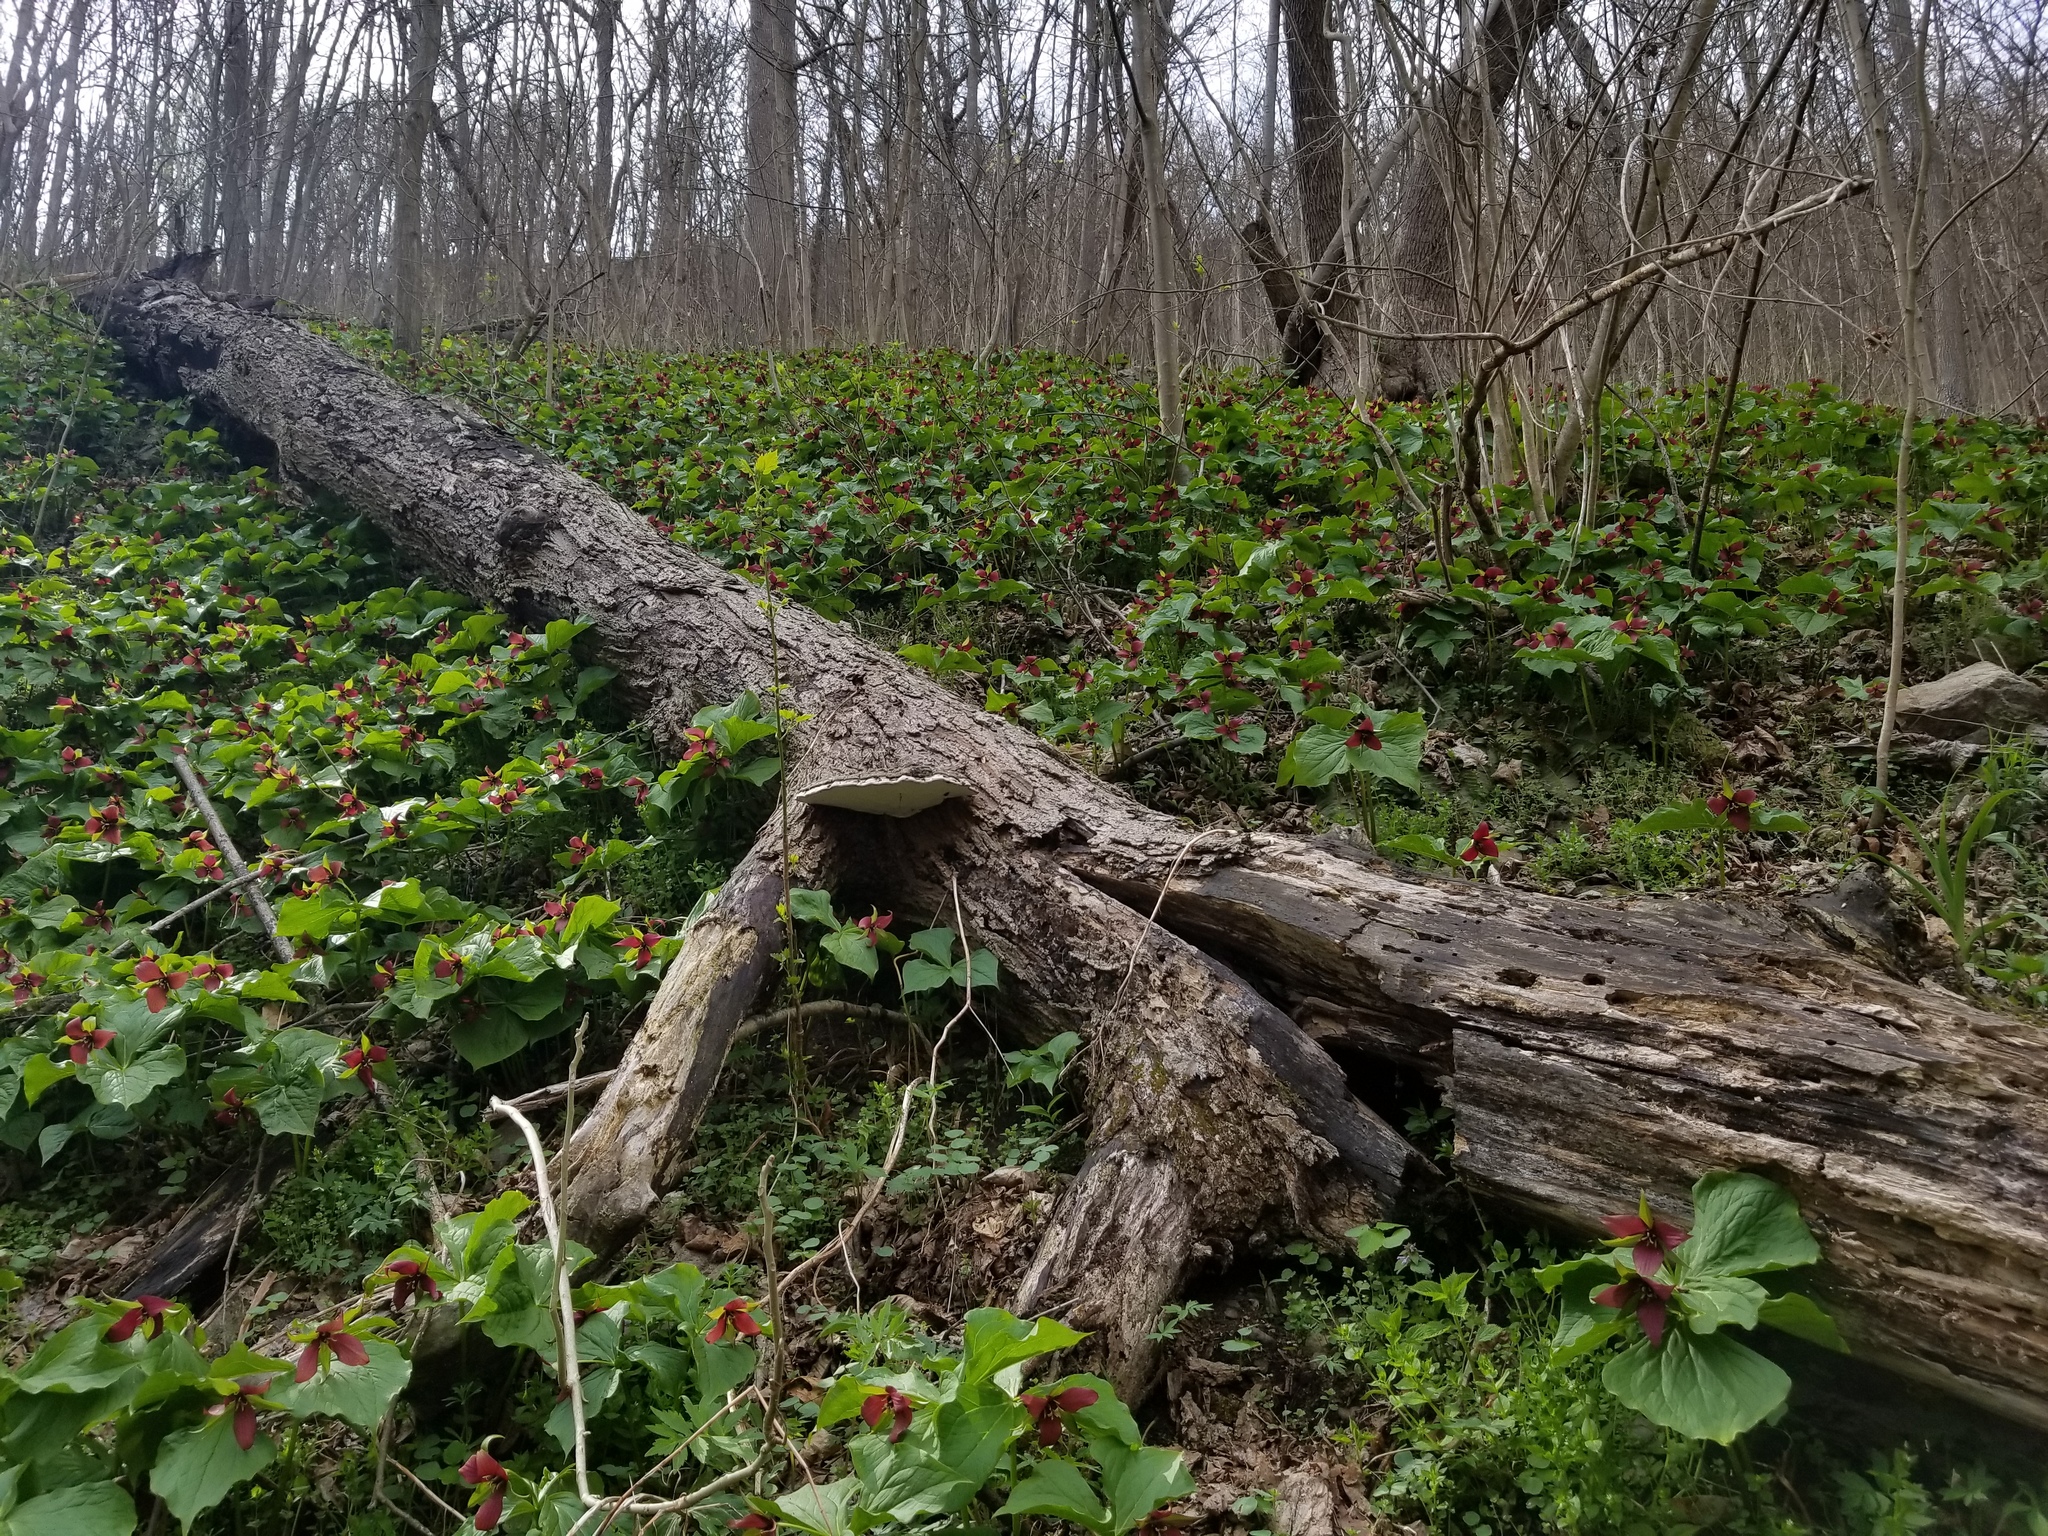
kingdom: Plantae
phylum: Tracheophyta
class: Liliopsida
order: Liliales
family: Melanthiaceae
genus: Trillium
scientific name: Trillium erectum
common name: Purple trillium
